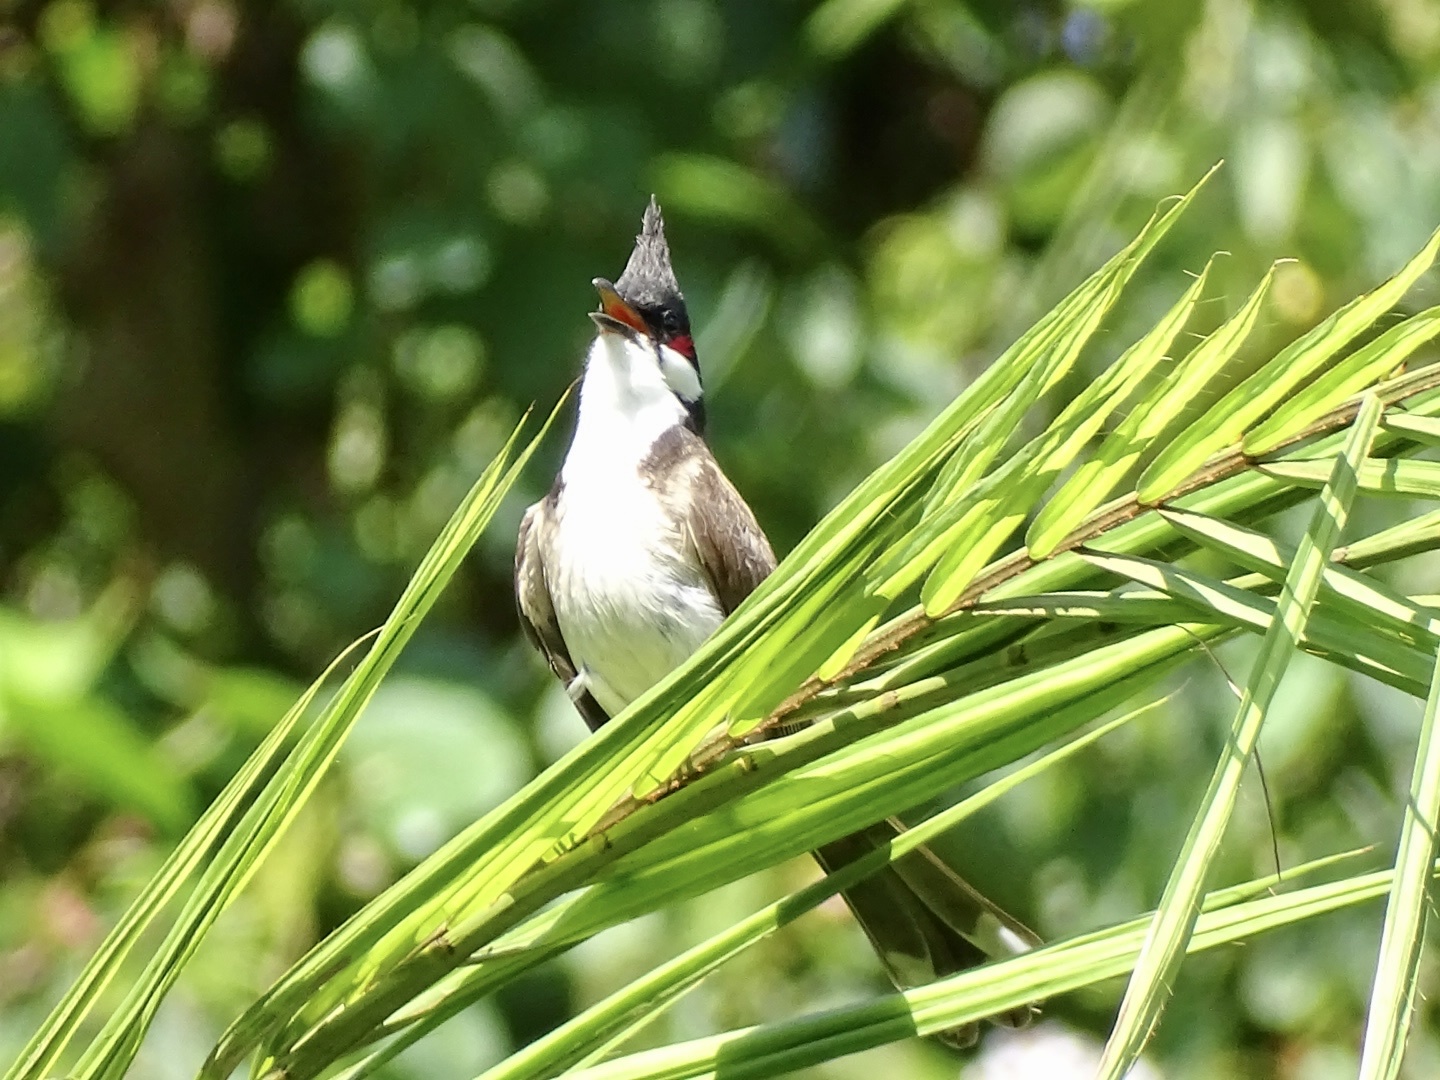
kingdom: Animalia
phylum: Chordata
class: Aves
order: Passeriformes
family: Pycnonotidae
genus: Pycnonotus
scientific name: Pycnonotus jocosus
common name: Red-whiskered bulbul
